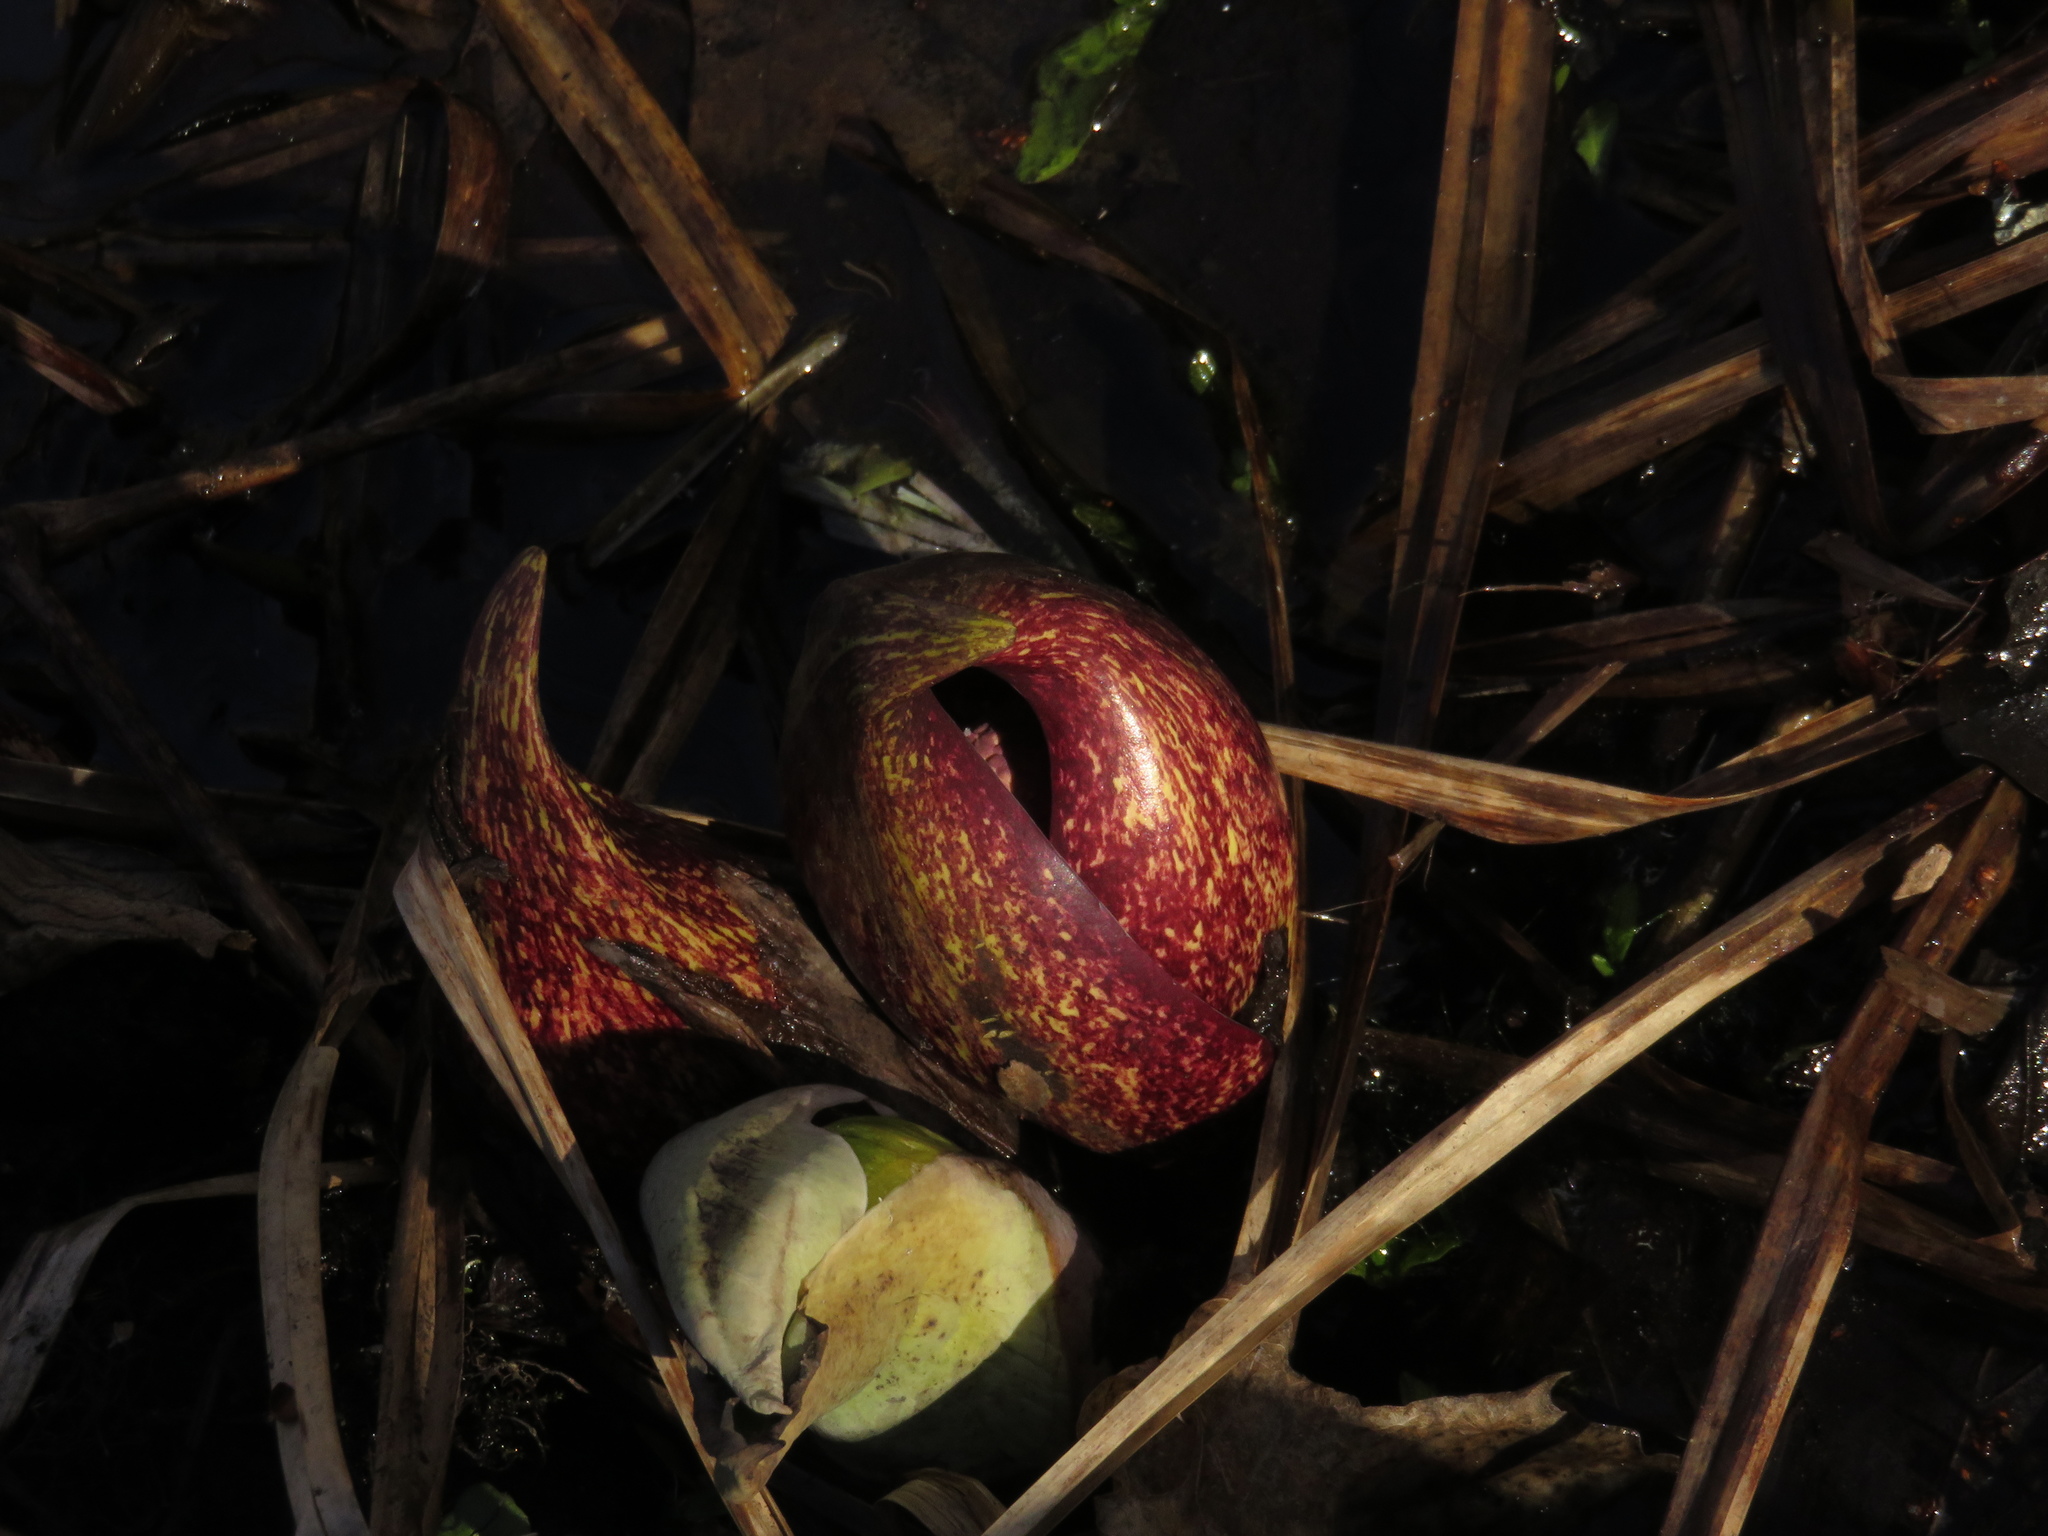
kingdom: Plantae
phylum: Tracheophyta
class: Liliopsida
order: Alismatales
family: Araceae
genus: Symplocarpus
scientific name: Symplocarpus foetidus
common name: Eastern skunk cabbage
